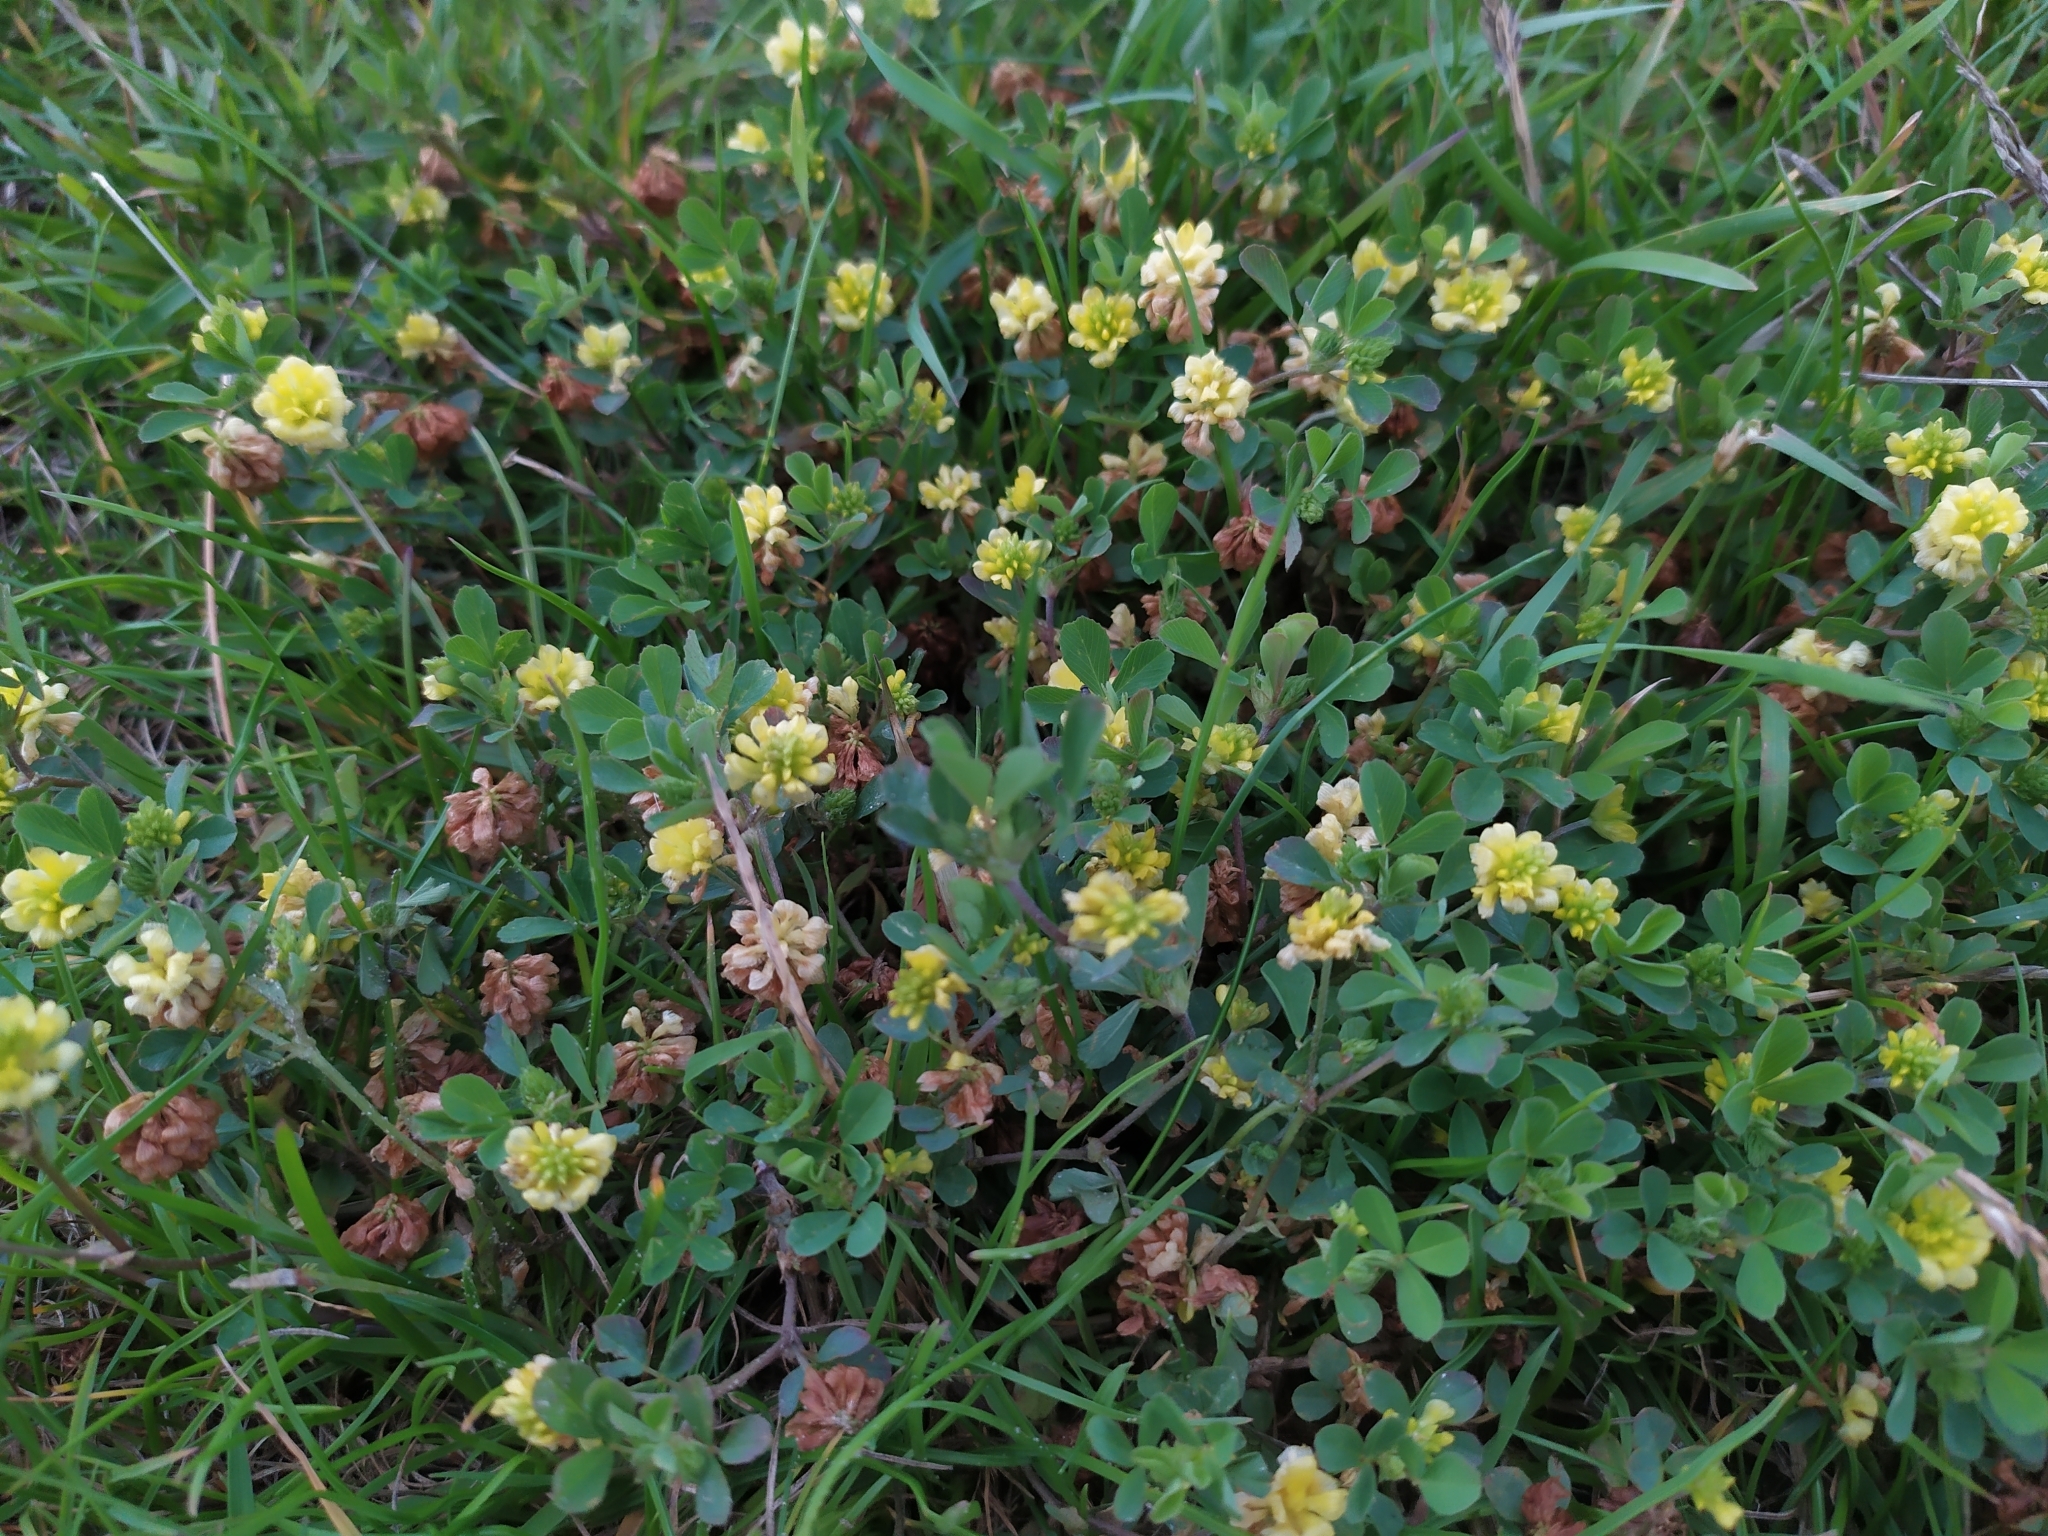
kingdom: Plantae
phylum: Tracheophyta
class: Magnoliopsida
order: Fabales
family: Fabaceae
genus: Trifolium
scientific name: Trifolium campestre
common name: Field clover
